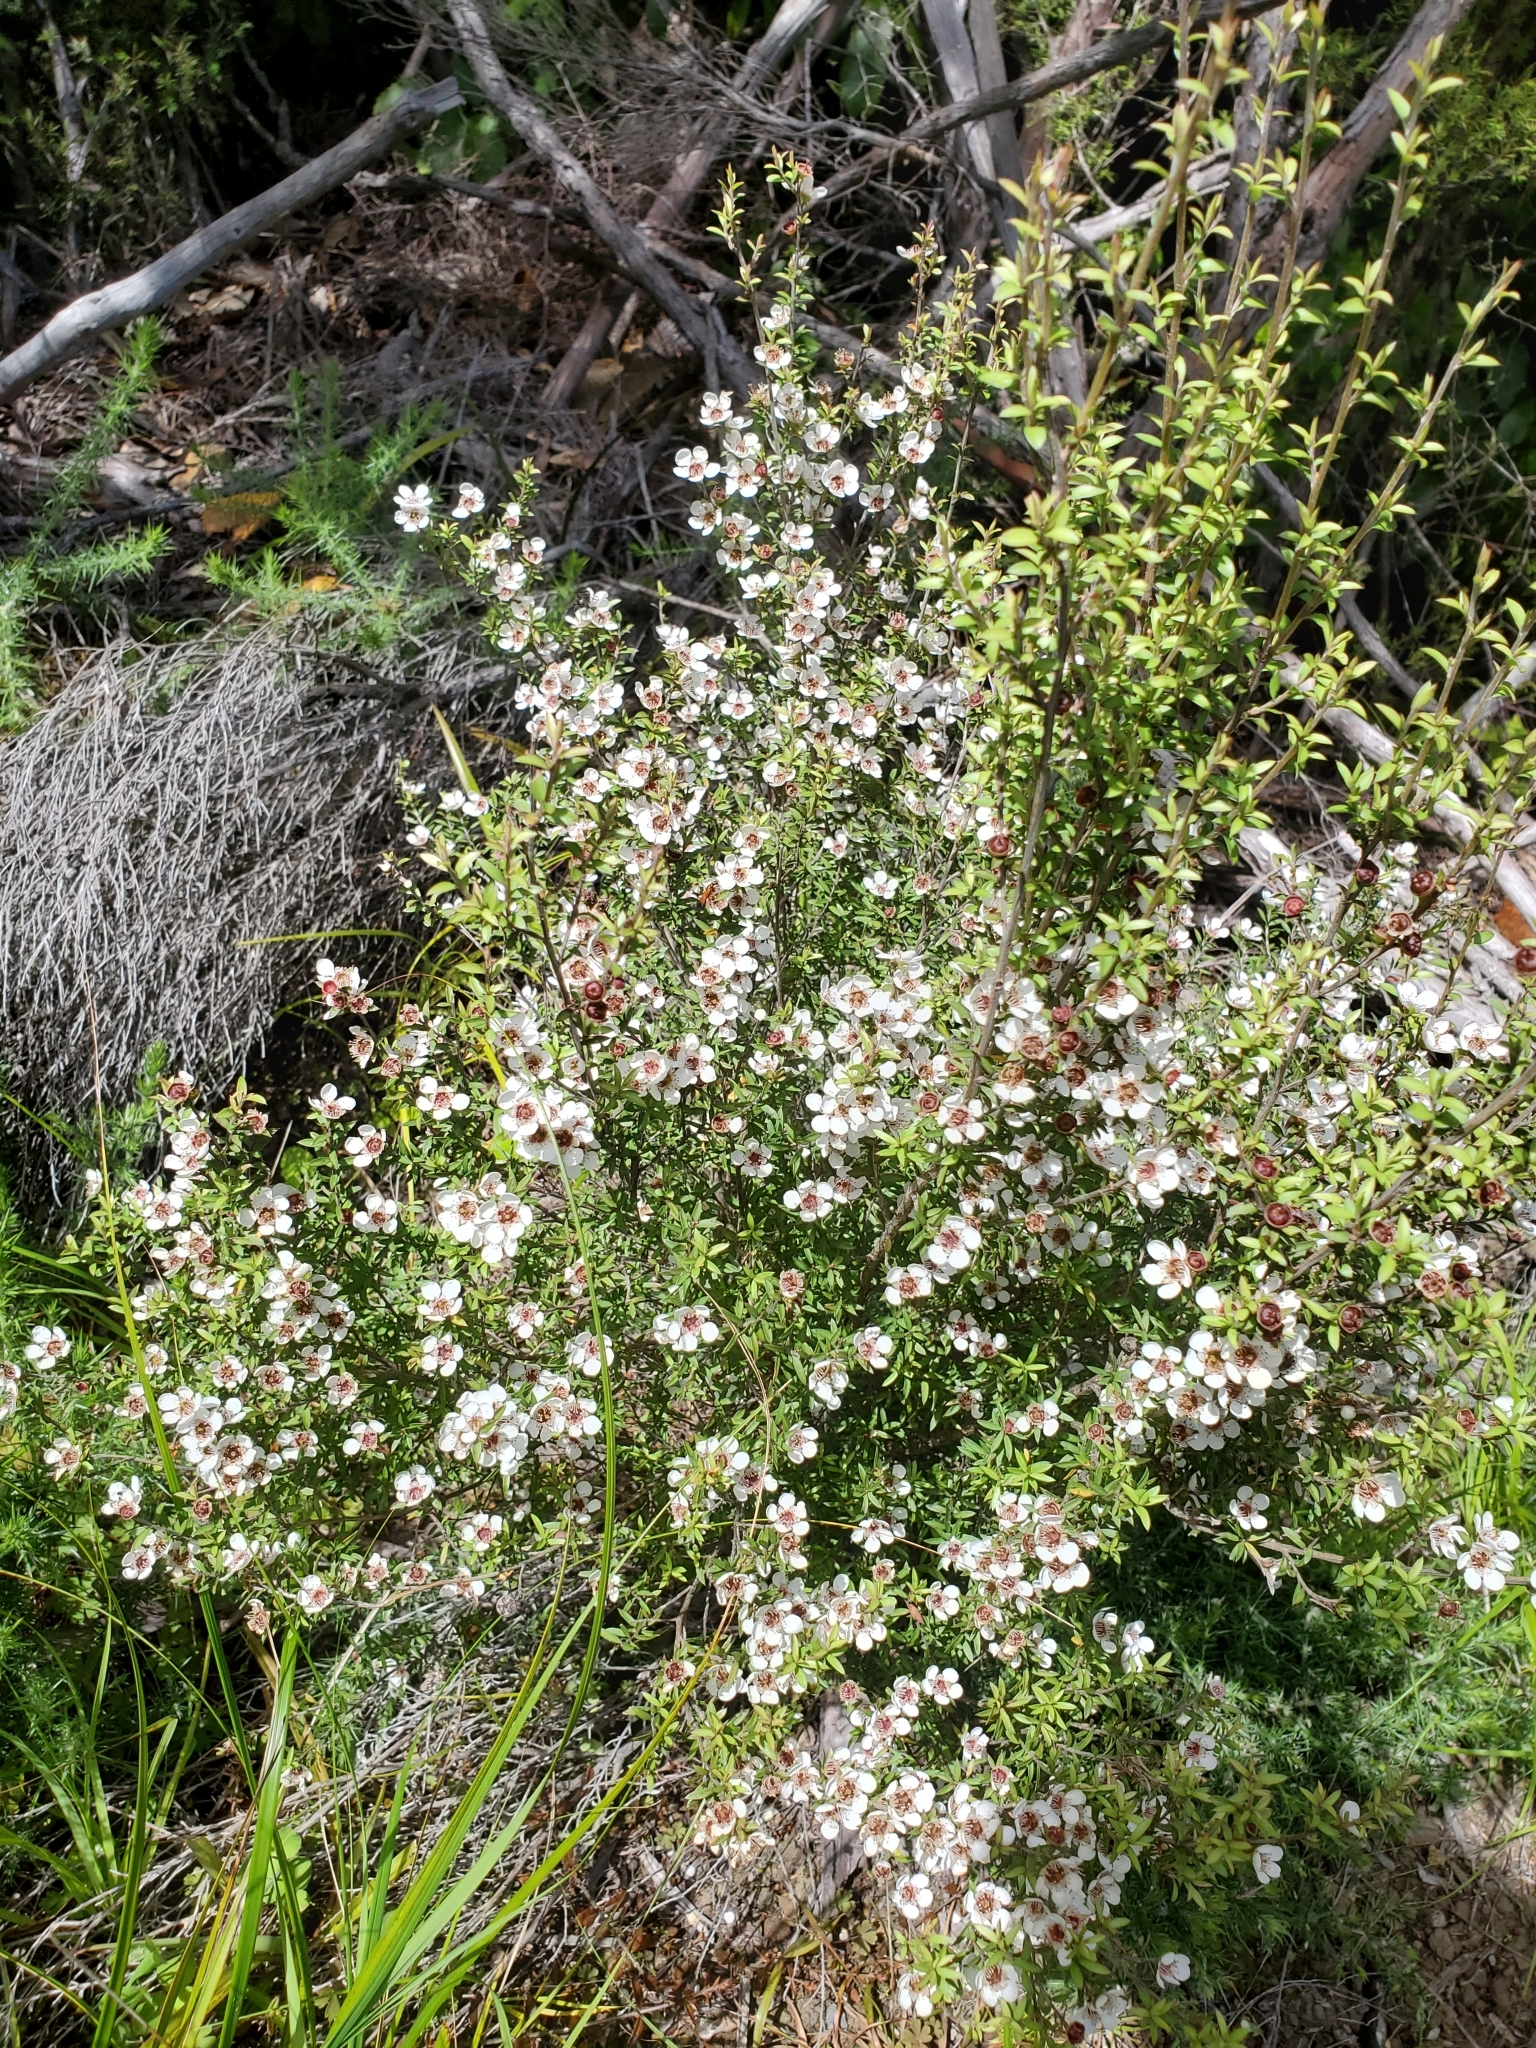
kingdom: Plantae
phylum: Tracheophyta
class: Magnoliopsida
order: Myrtales
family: Myrtaceae
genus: Leptospermum
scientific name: Leptospermum scoparium
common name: Broom tea-tree
